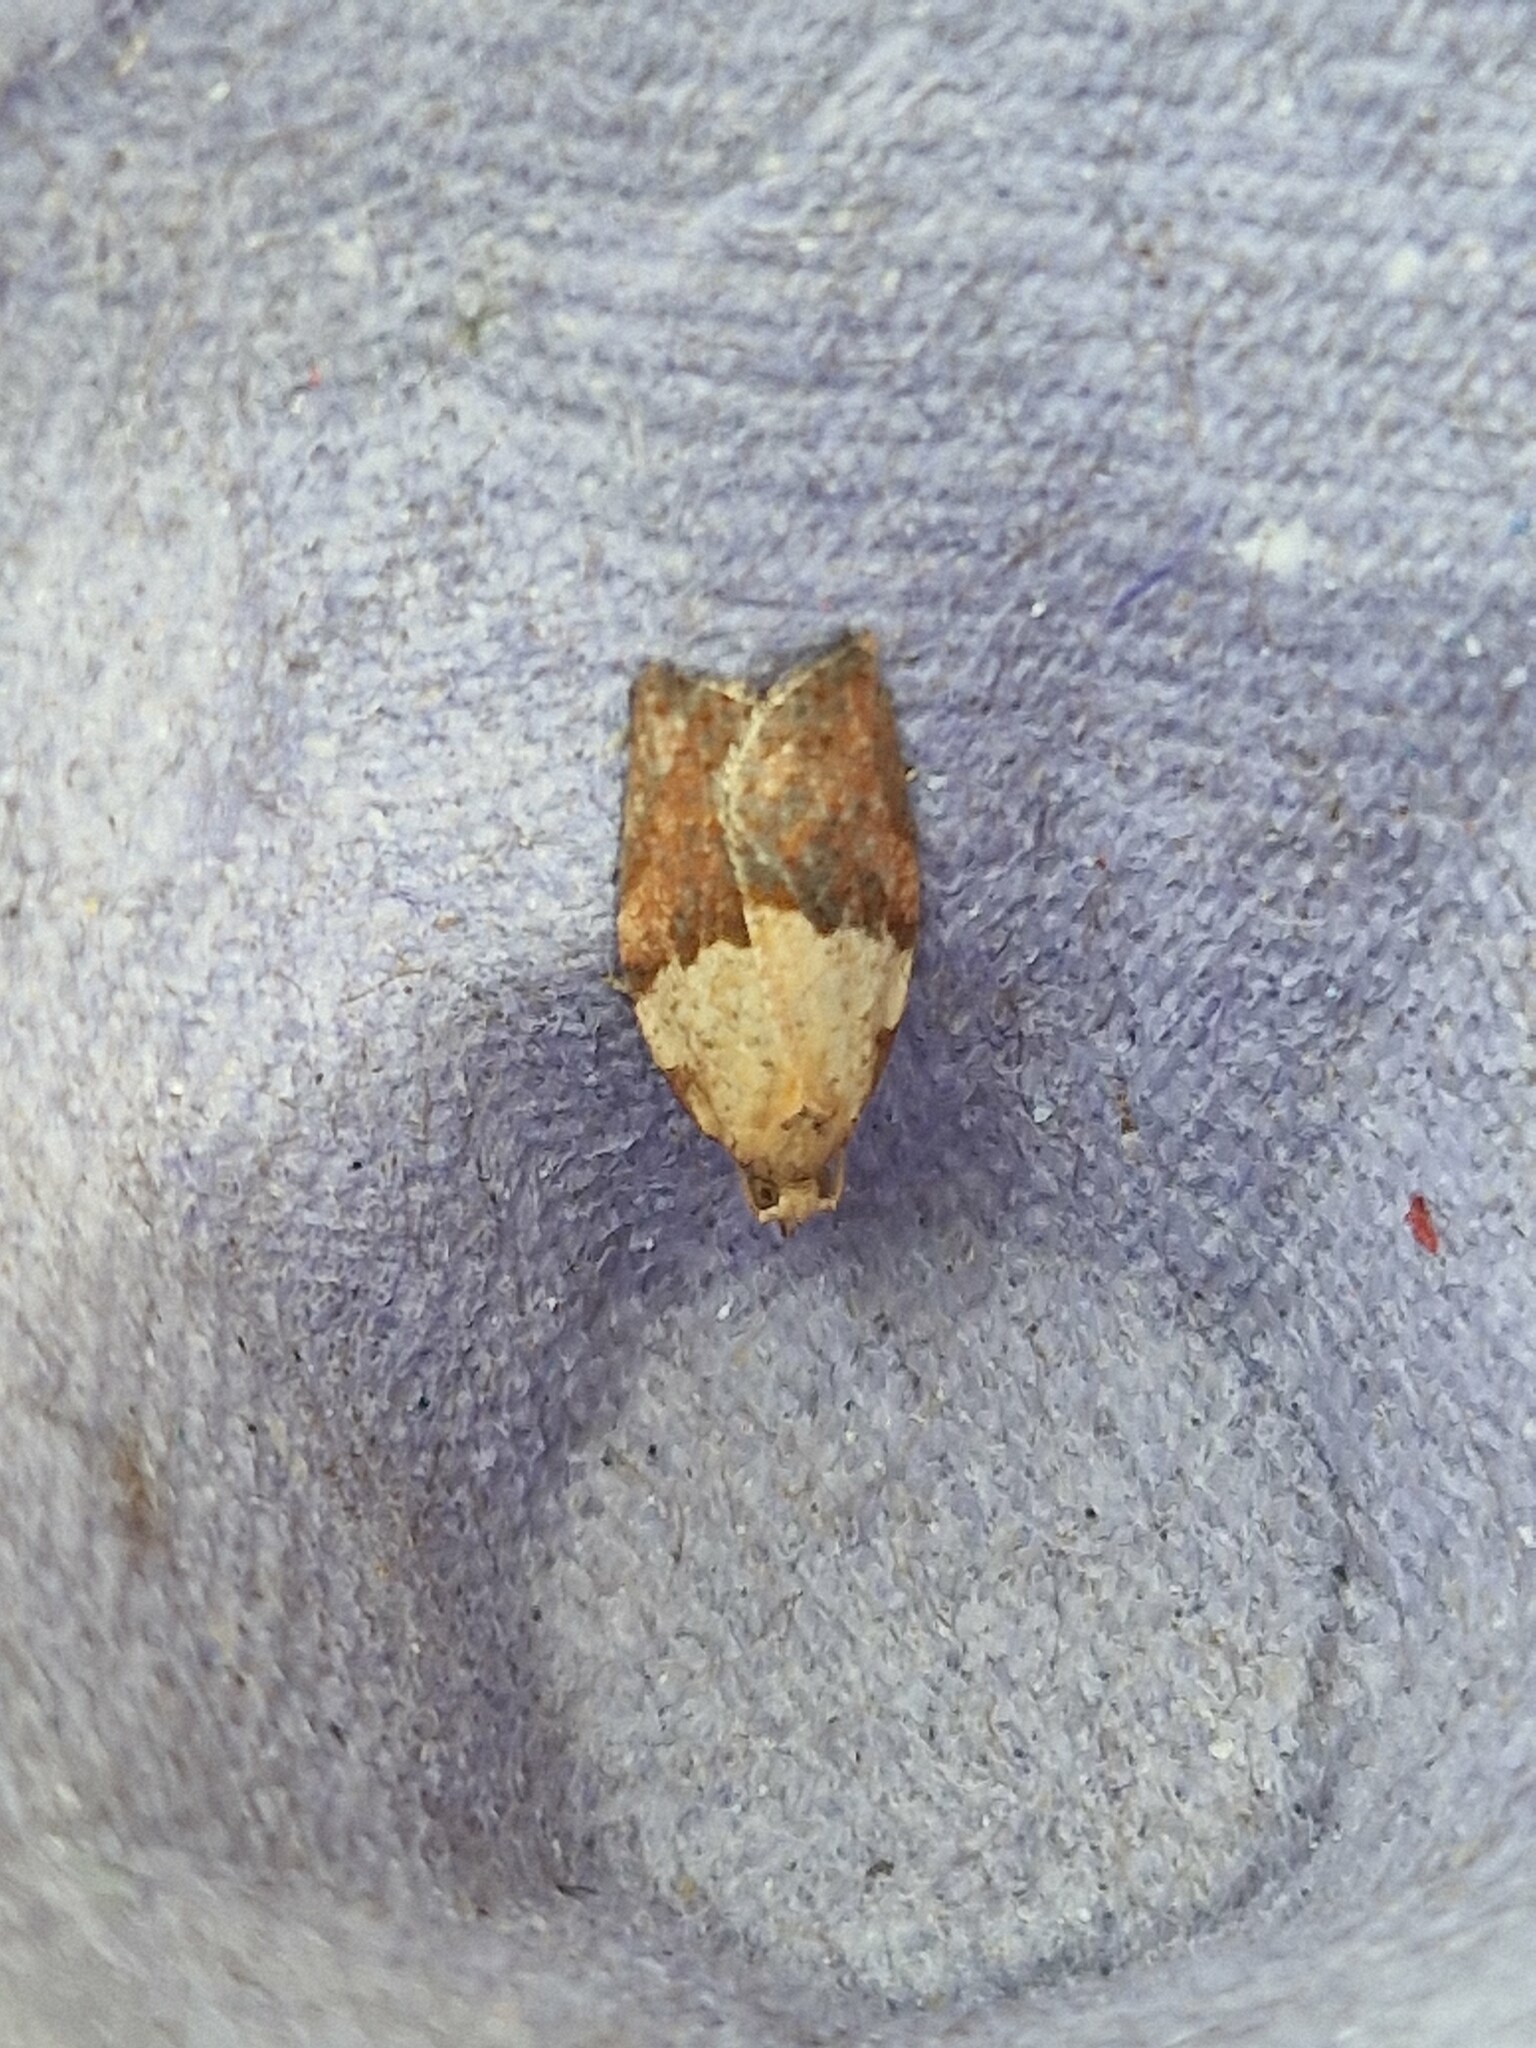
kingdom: Animalia
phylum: Arthropoda
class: Insecta
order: Lepidoptera
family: Tortricidae
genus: Epiphyas
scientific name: Epiphyas postvittana
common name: Light brown apple moth
